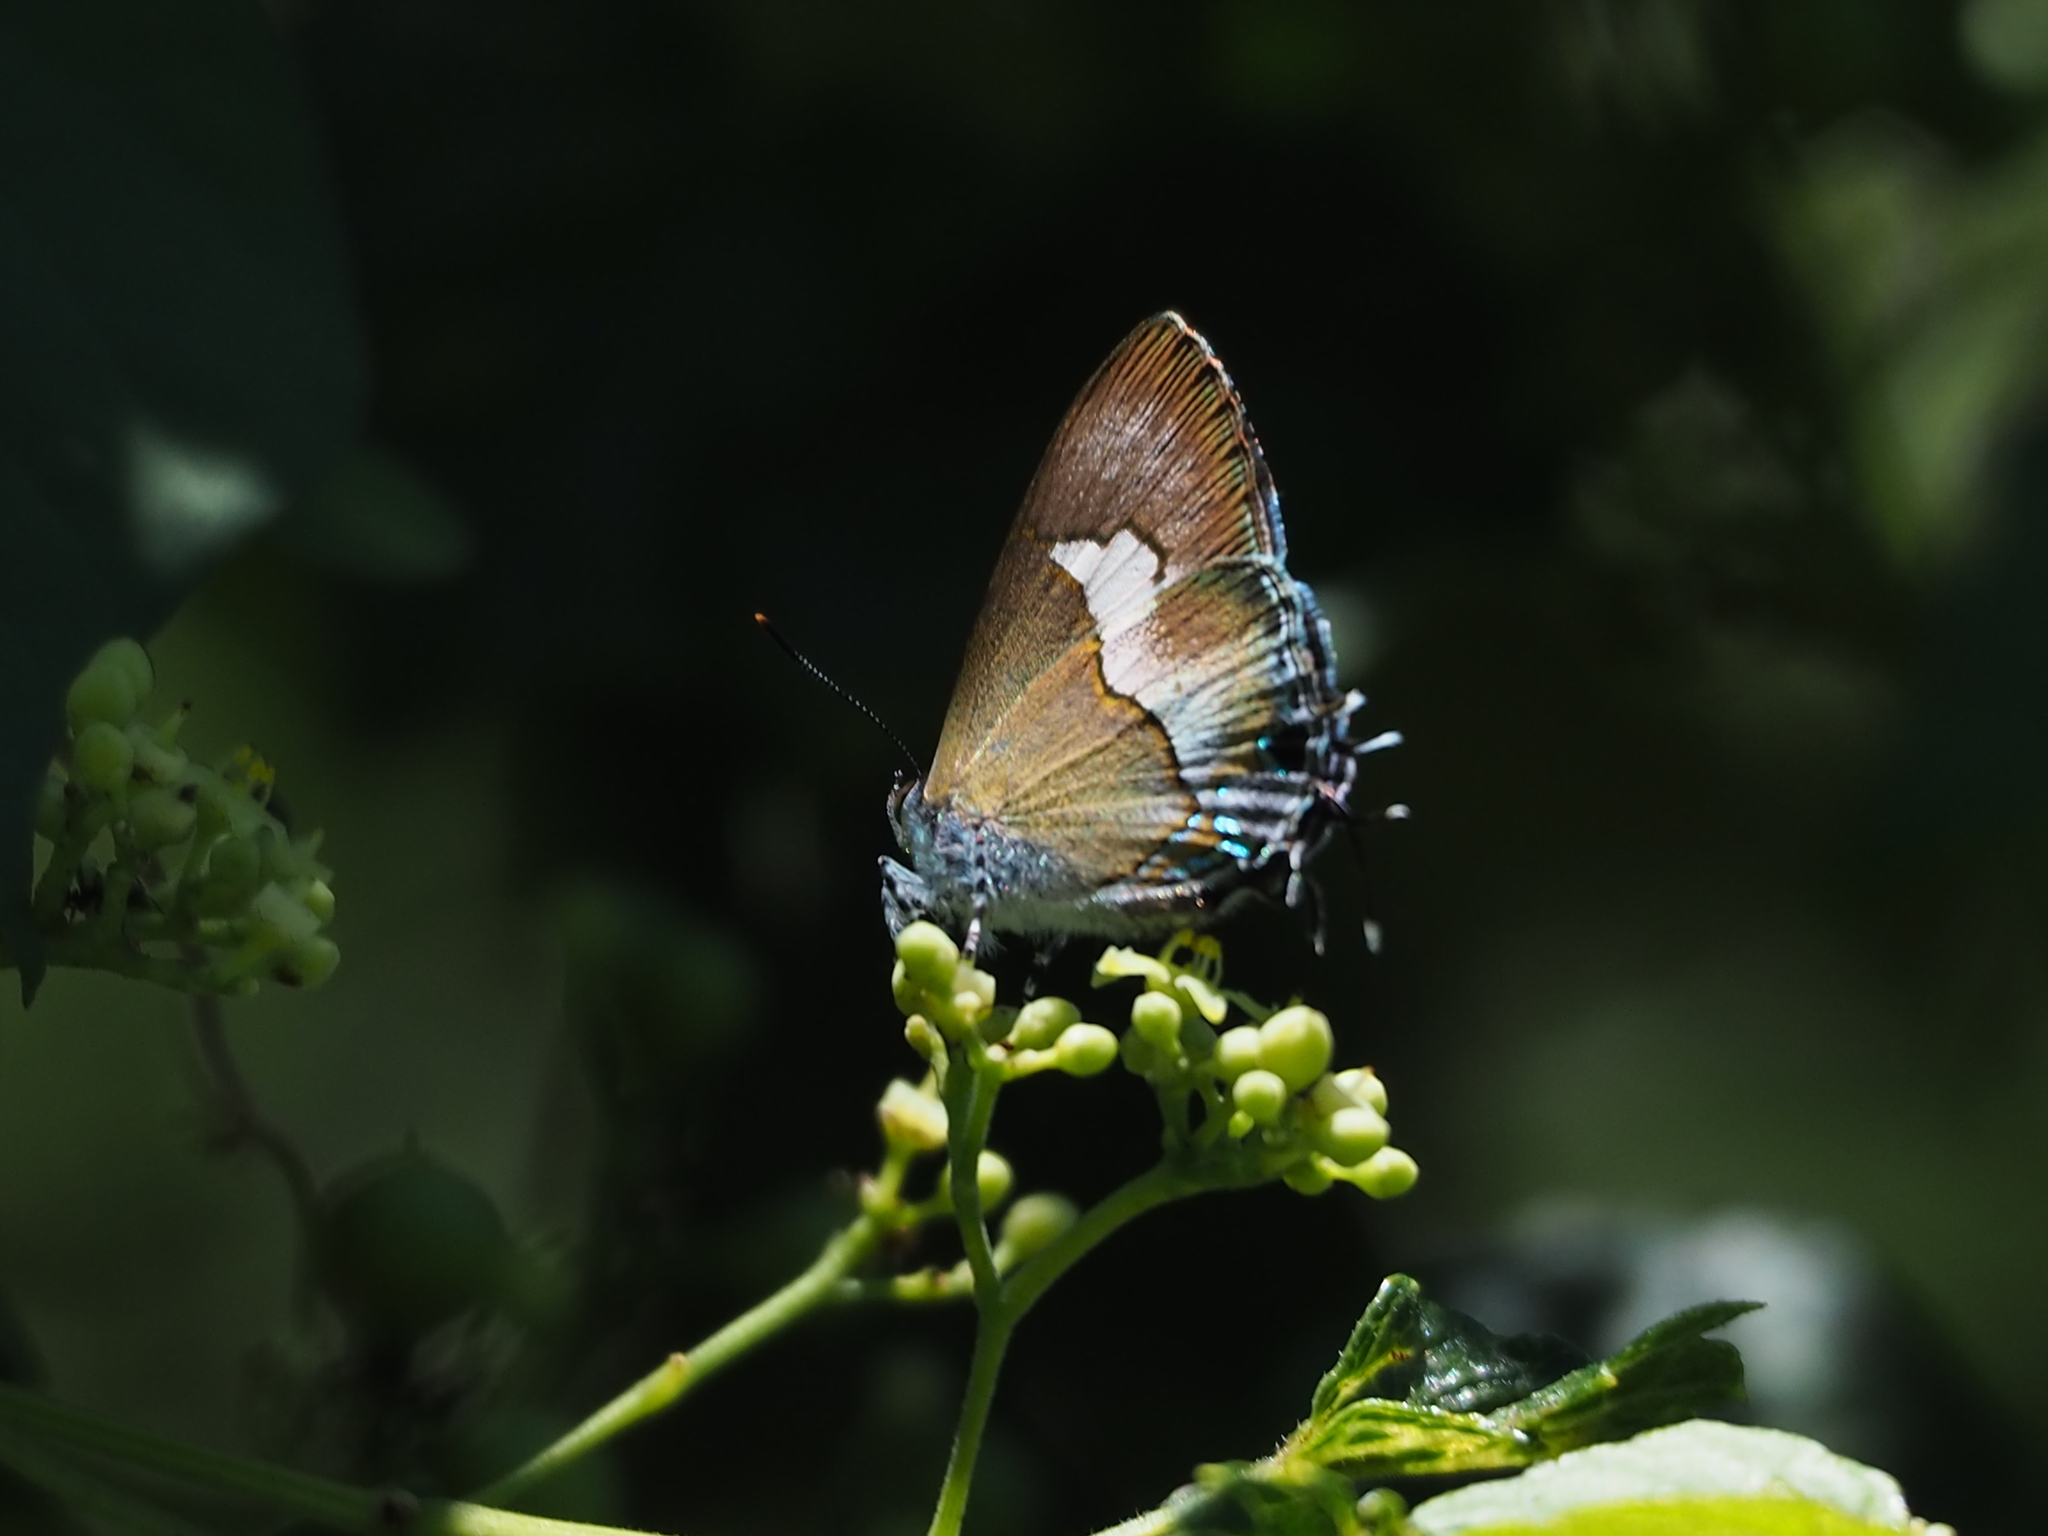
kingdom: Animalia
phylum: Arthropoda
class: Insecta
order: Lepidoptera
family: Lycaenidae
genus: Horaga
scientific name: Horaga onyx
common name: Common onyx
